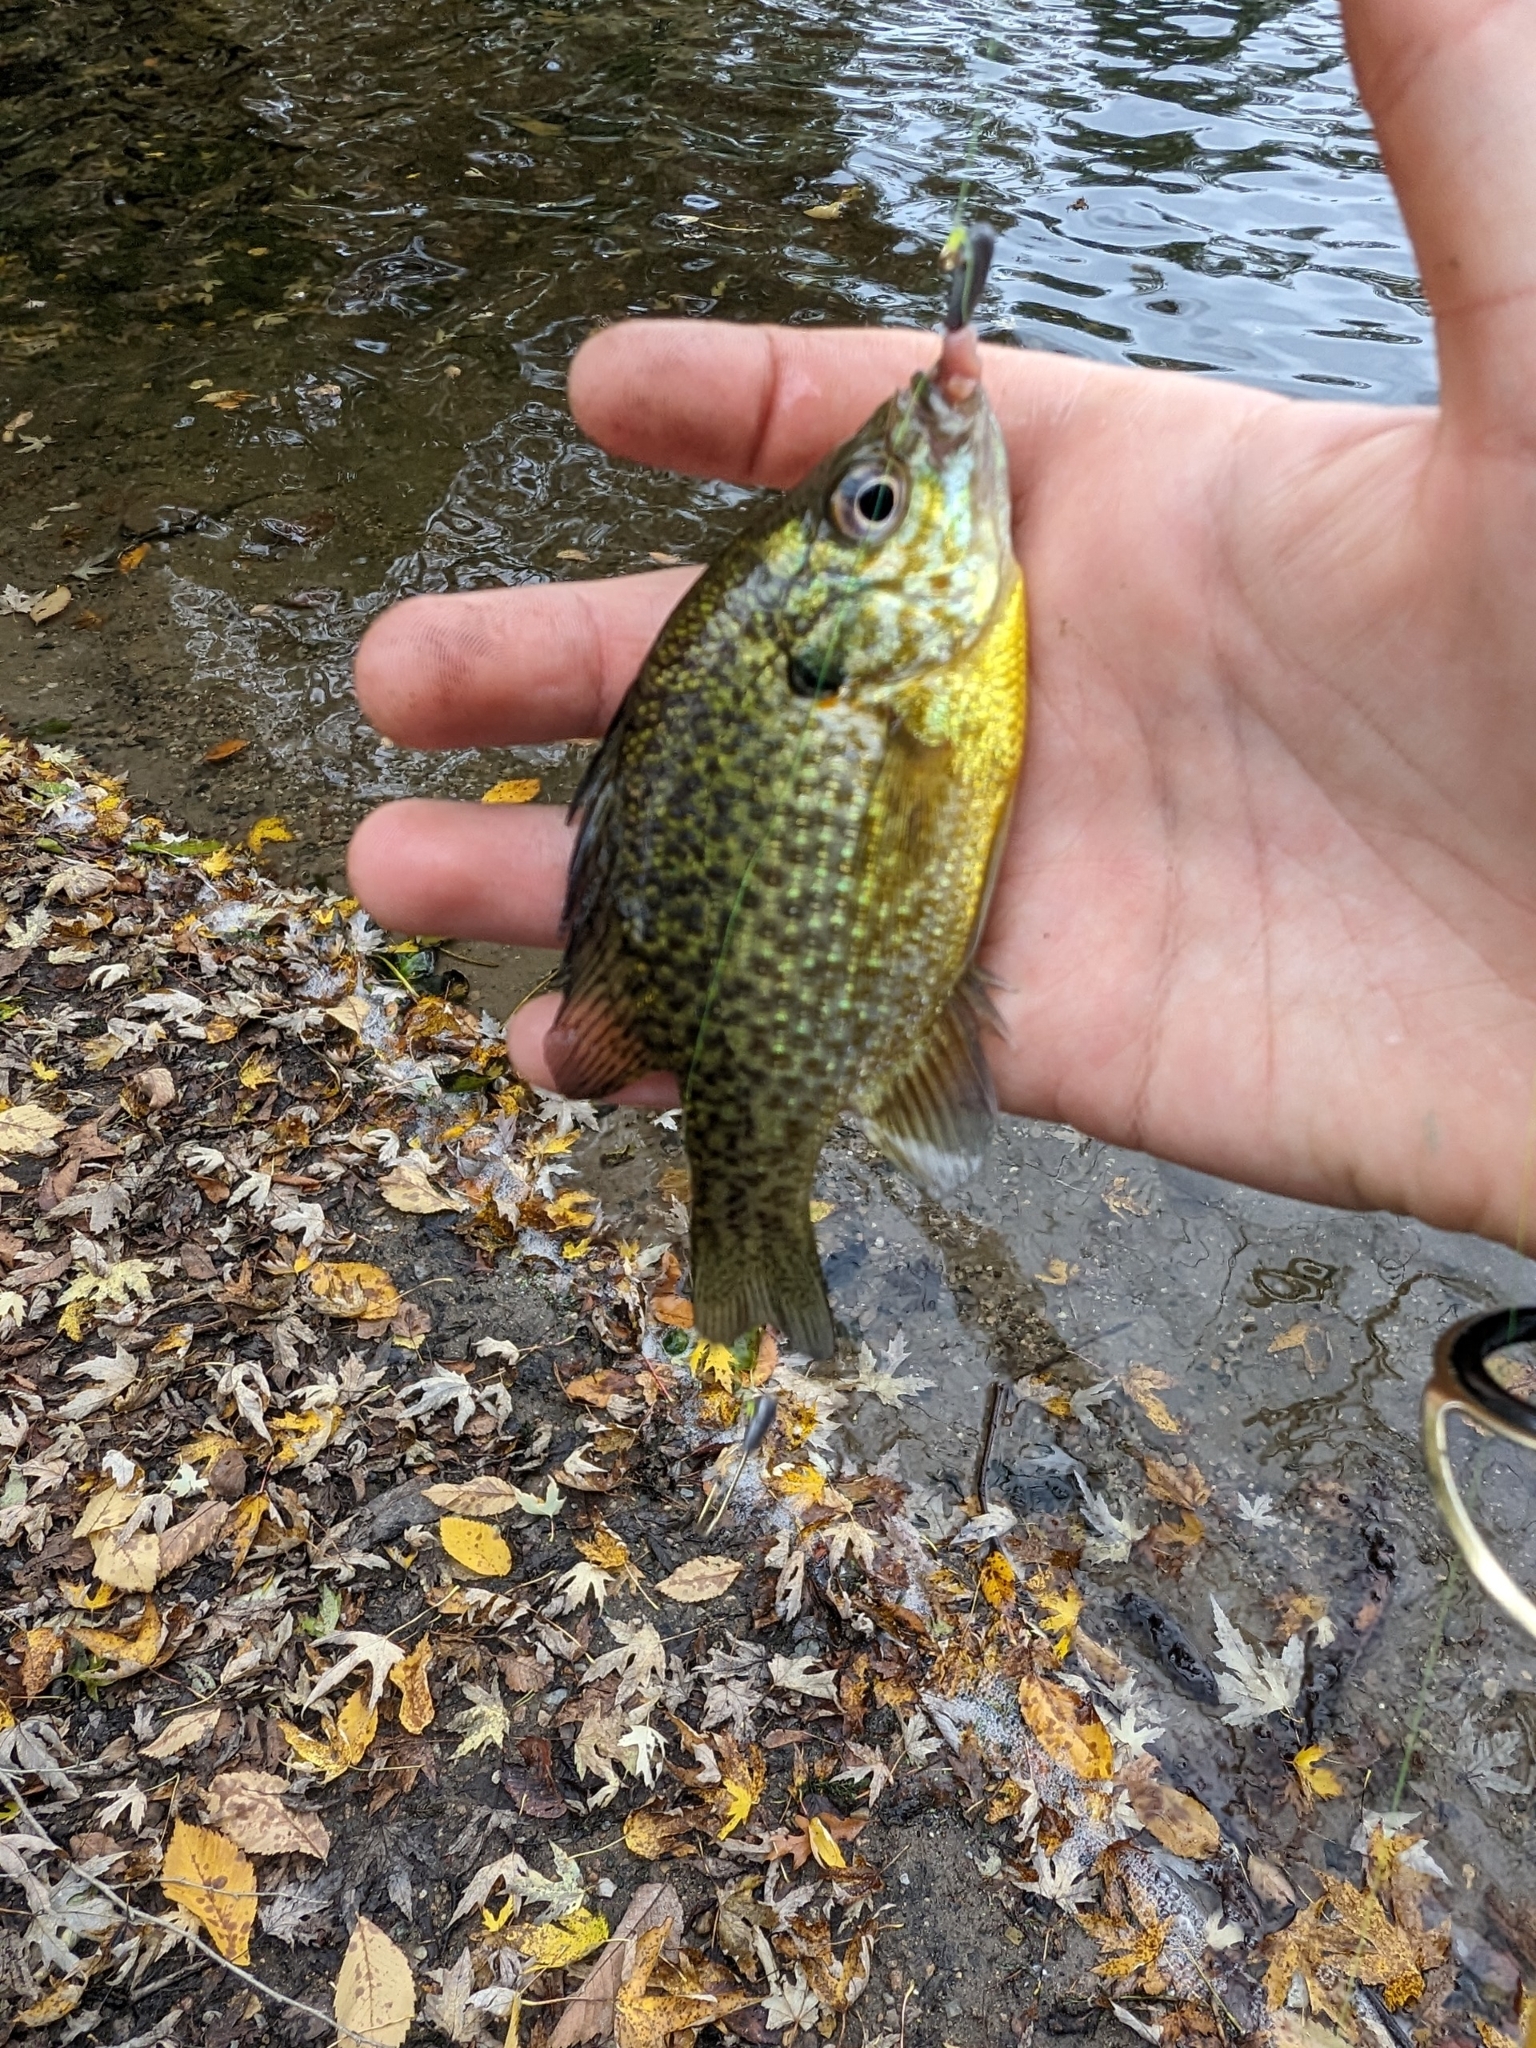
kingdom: Animalia
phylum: Chordata
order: Perciformes
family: Centrarchidae
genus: Lepomis
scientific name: Lepomis
